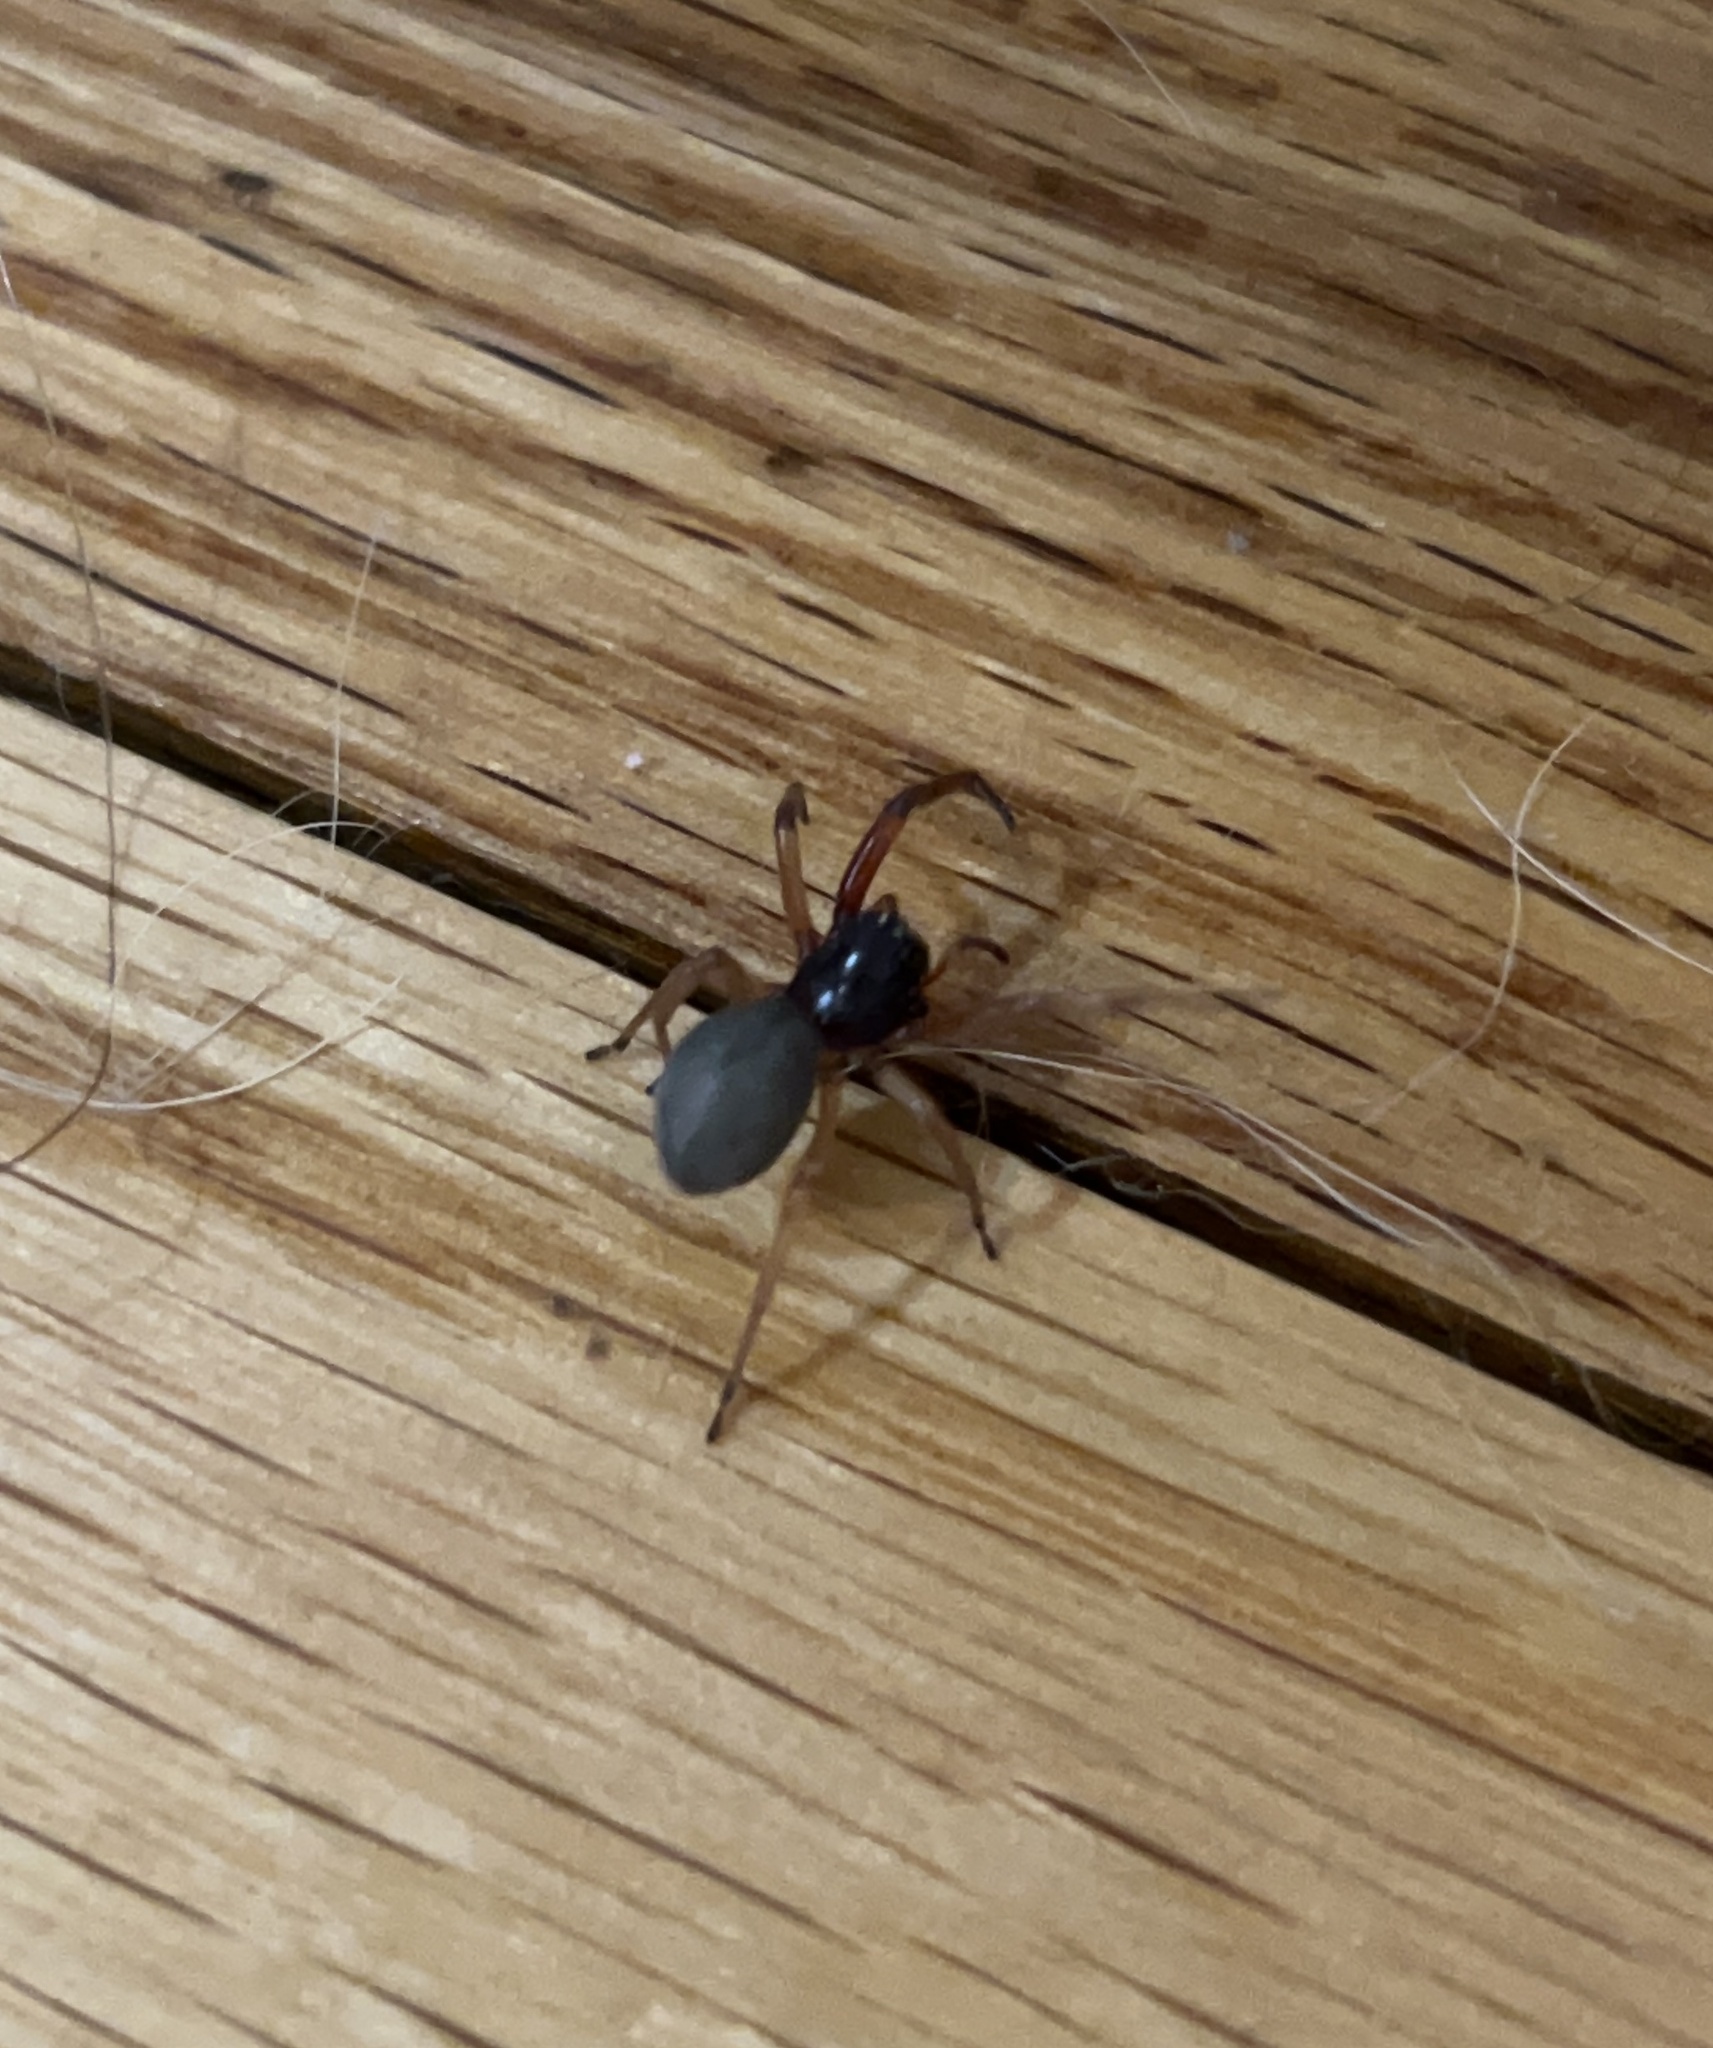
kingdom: Animalia
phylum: Arthropoda
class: Arachnida
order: Araneae
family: Trachelidae
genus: Trachelas
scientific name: Trachelas tranquillus
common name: Broad-faced sac spider
